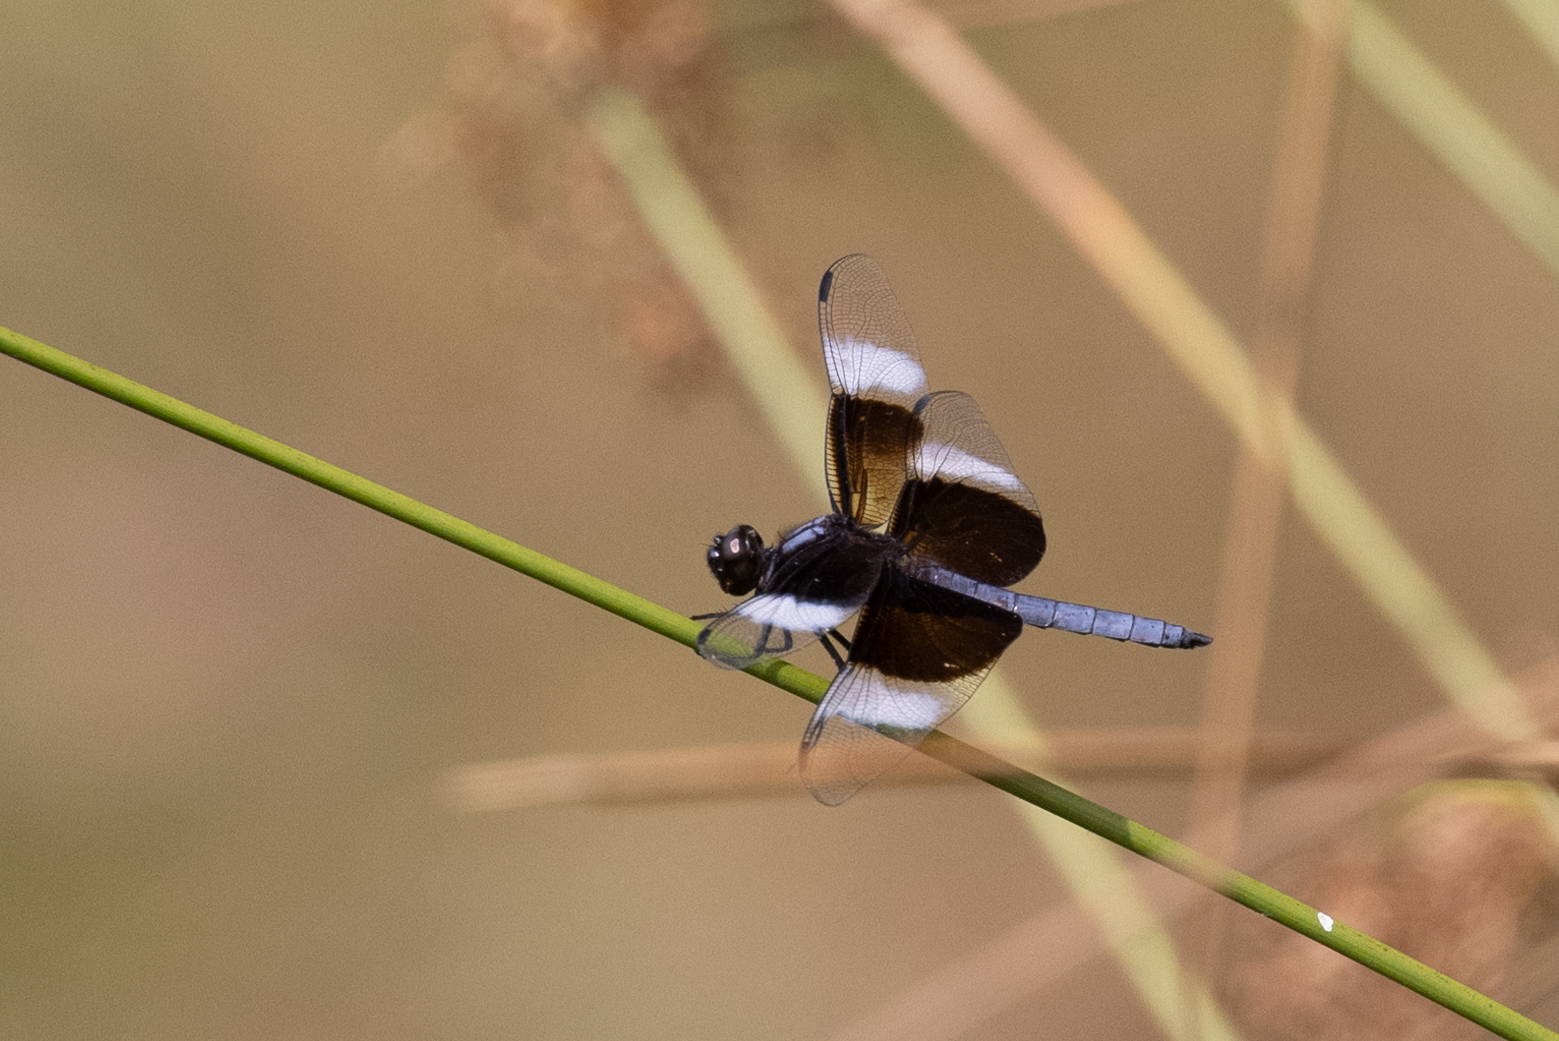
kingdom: Animalia
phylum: Arthropoda
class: Insecta
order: Odonata
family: Libellulidae
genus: Libellula
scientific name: Libellula luctuosa
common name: Widow skimmer
